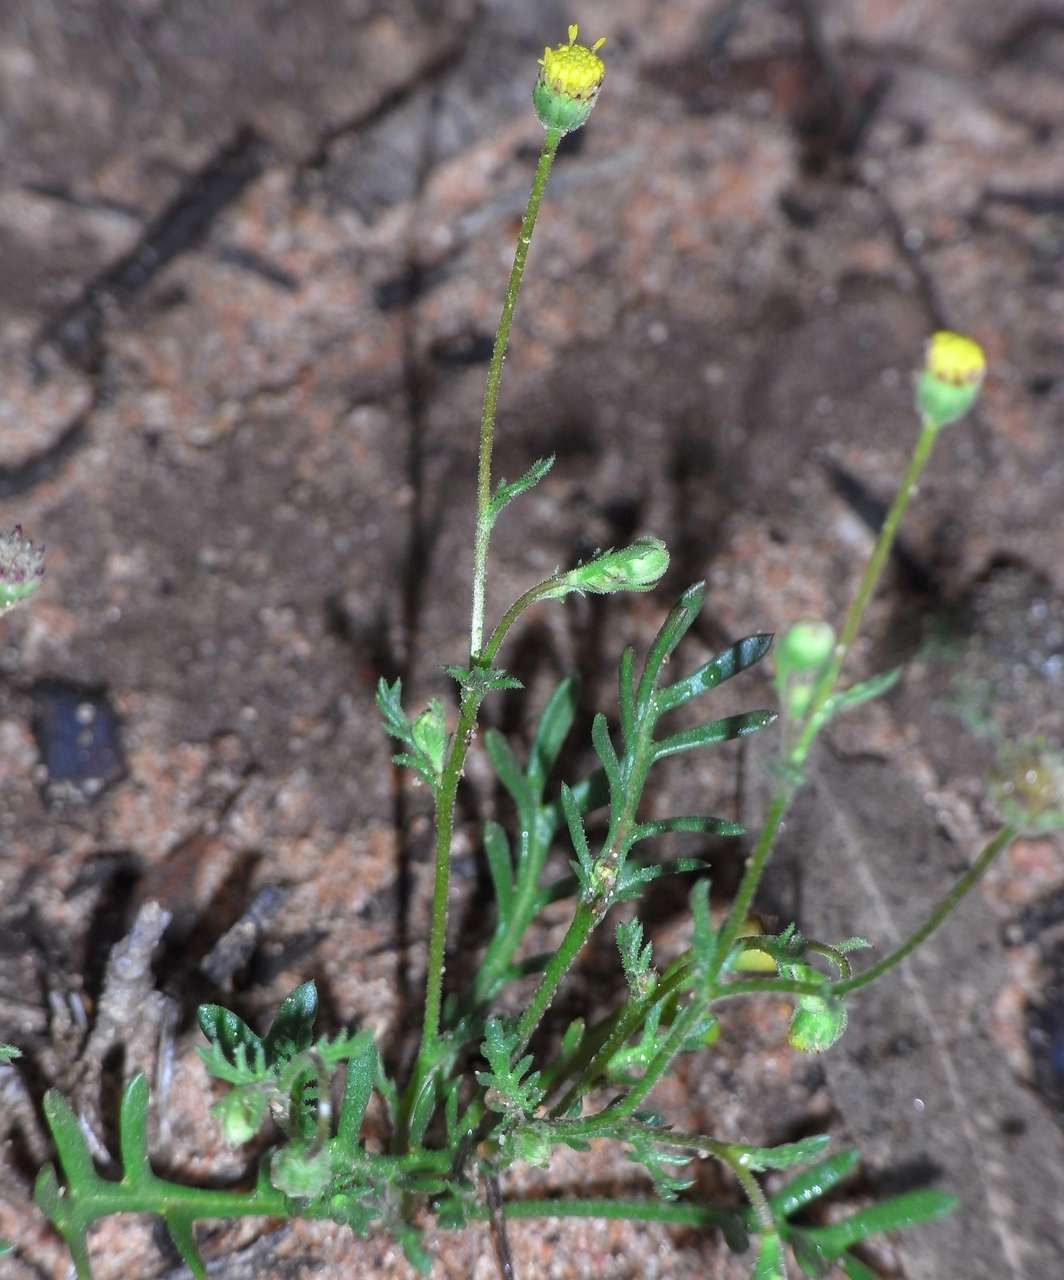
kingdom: Plantae
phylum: Tracheophyta
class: Magnoliopsida
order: Asterales
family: Asteraceae
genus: Brachyscome
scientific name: Brachyscome ciliaris
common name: Variable daisy
